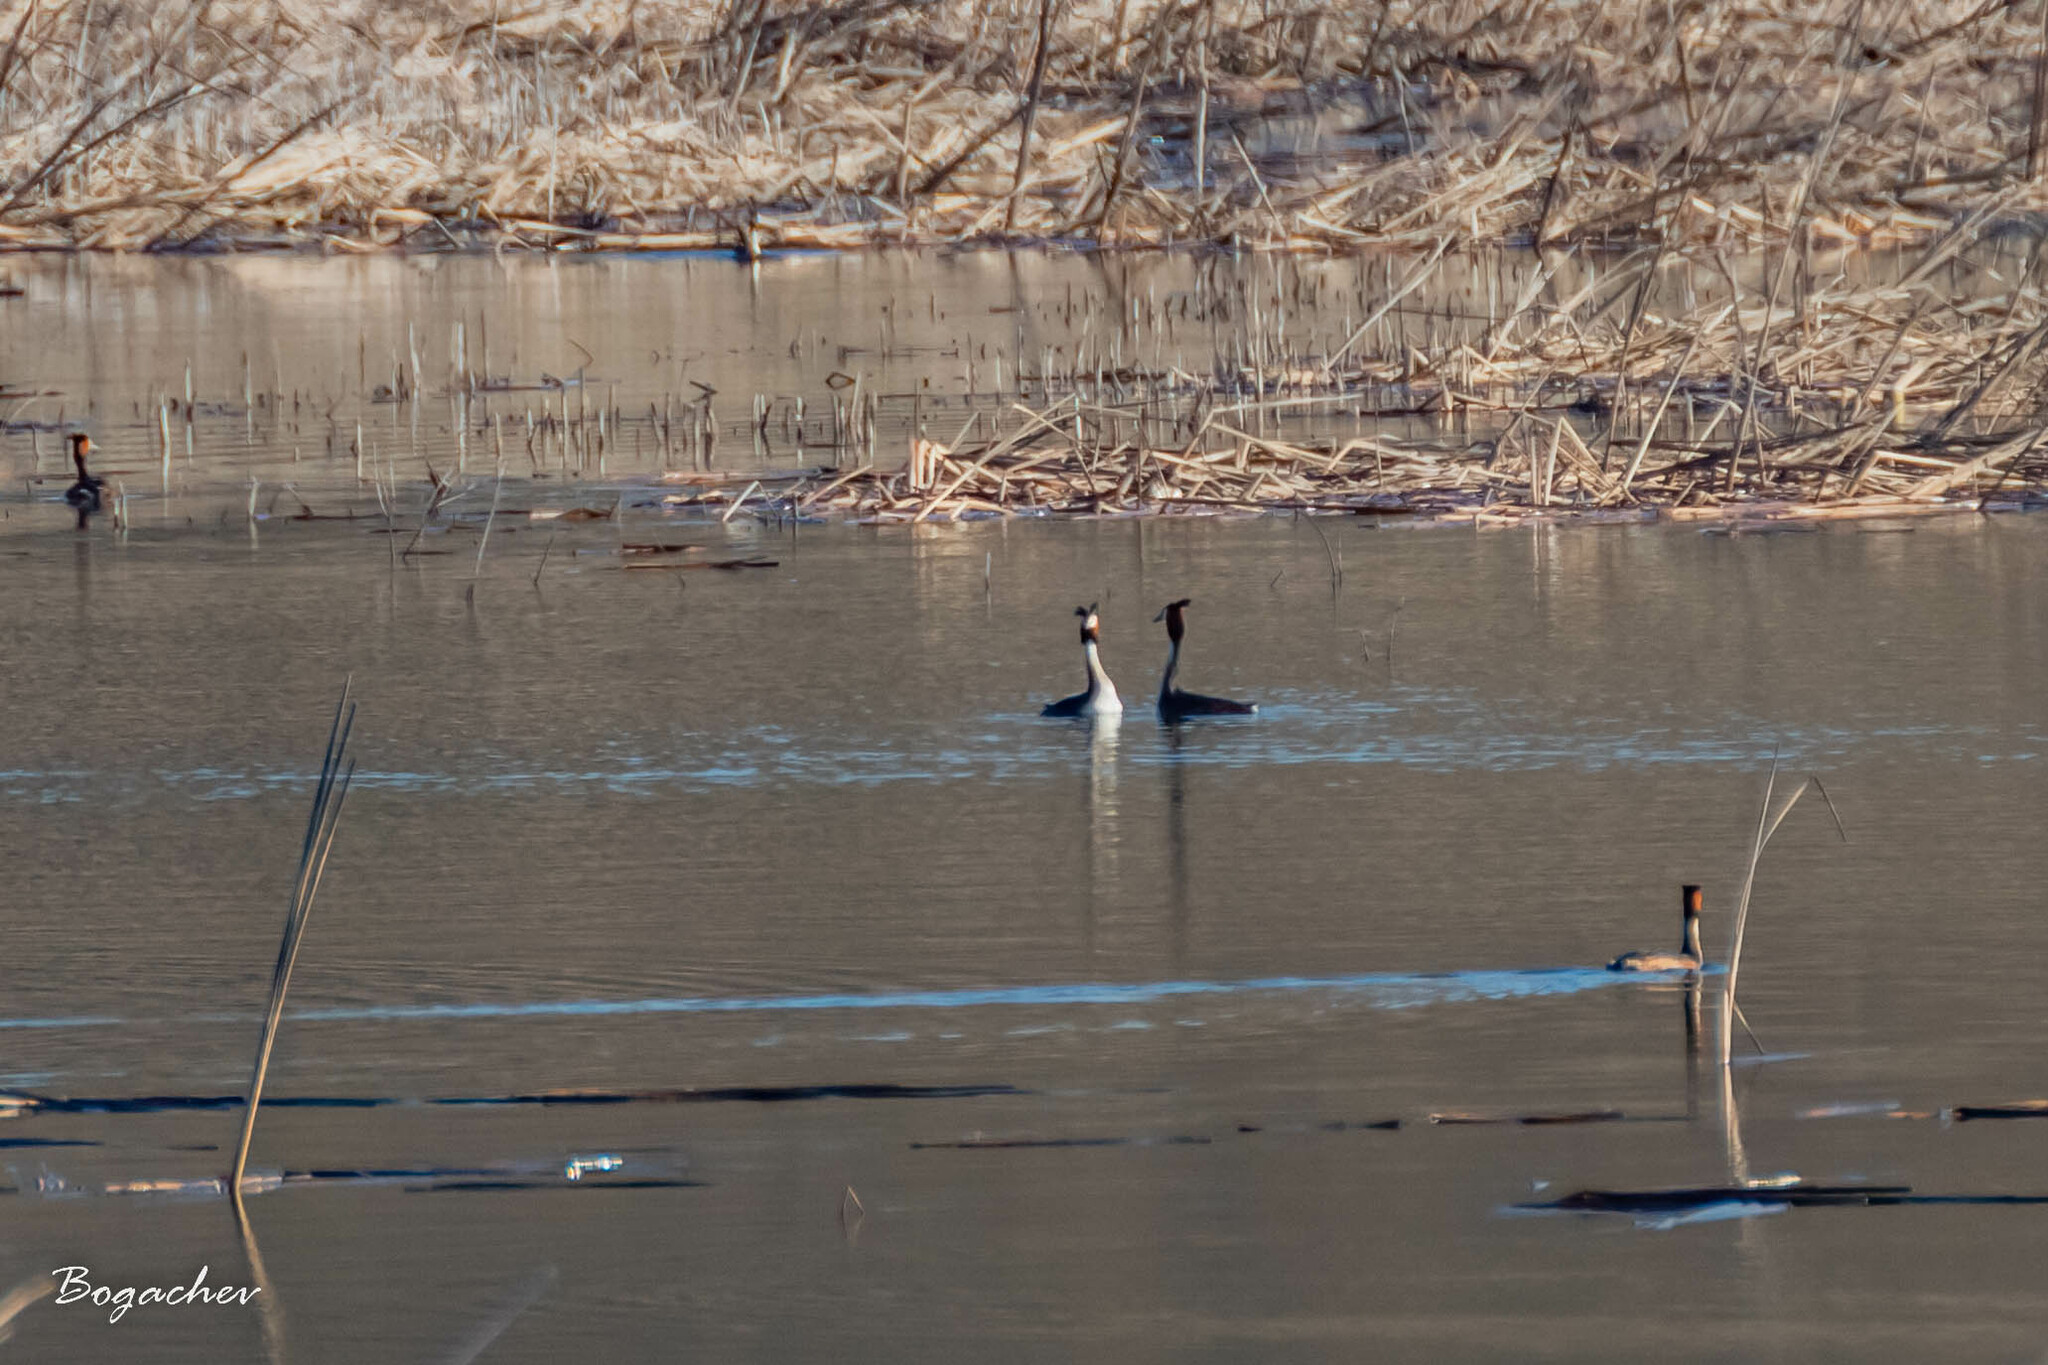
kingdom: Animalia
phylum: Chordata
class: Aves
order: Podicipediformes
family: Podicipedidae
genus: Podiceps
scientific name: Podiceps cristatus
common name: Great crested grebe
